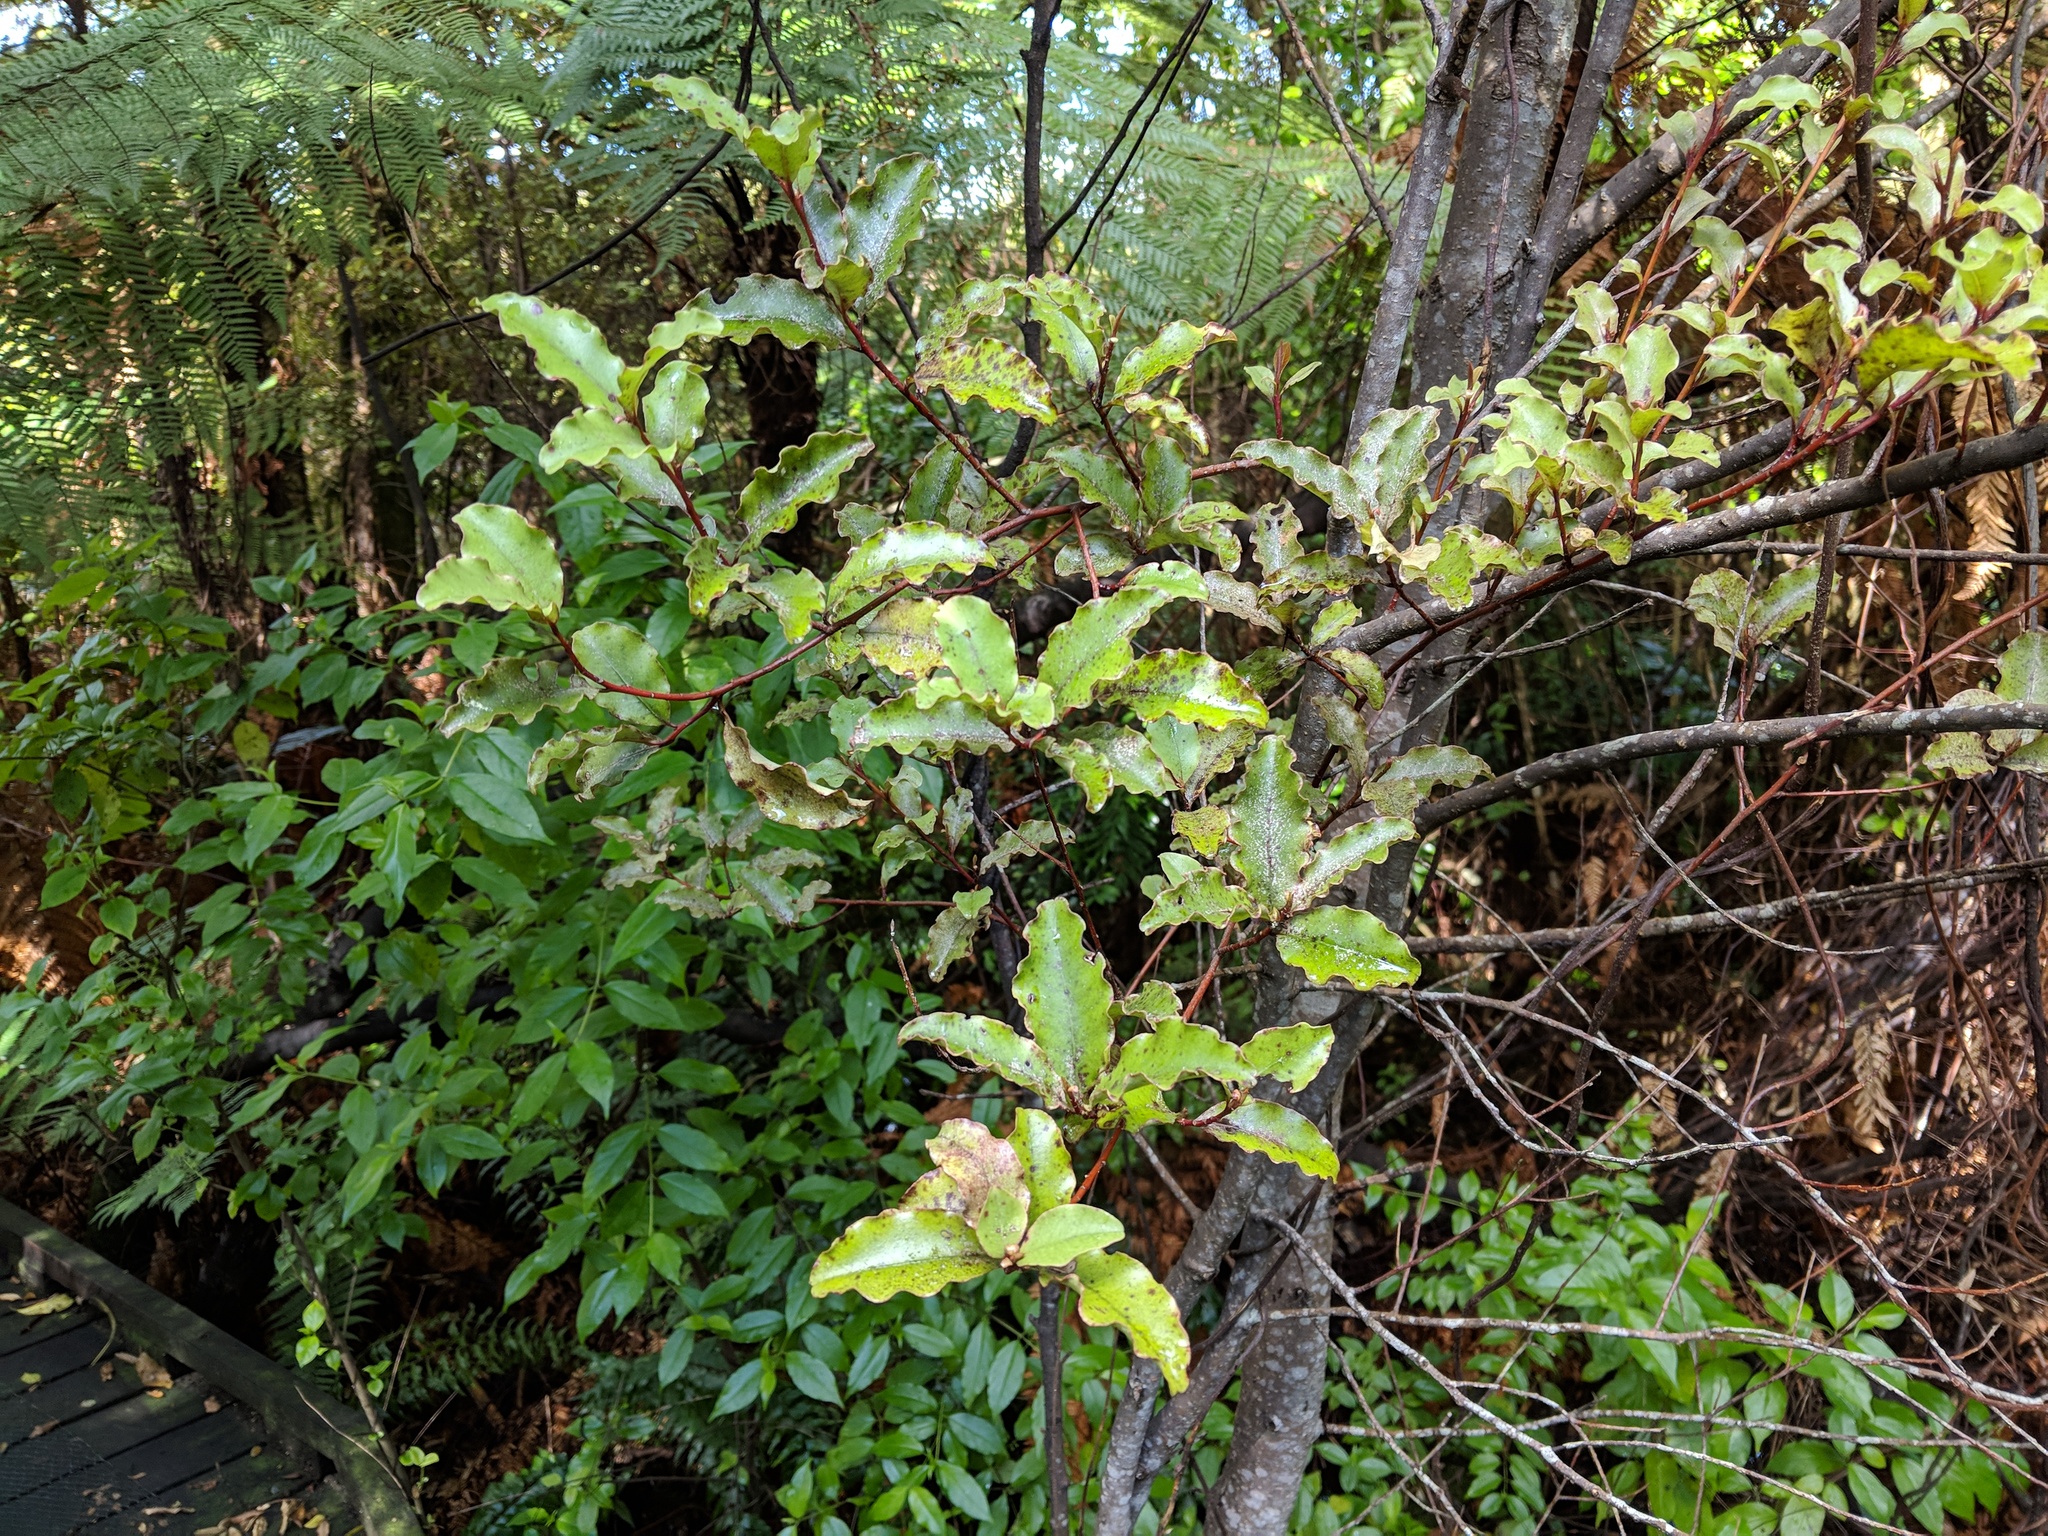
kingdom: Plantae
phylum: Tracheophyta
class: Magnoliopsida
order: Ericales
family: Primulaceae
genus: Myrsine
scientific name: Myrsine australis
